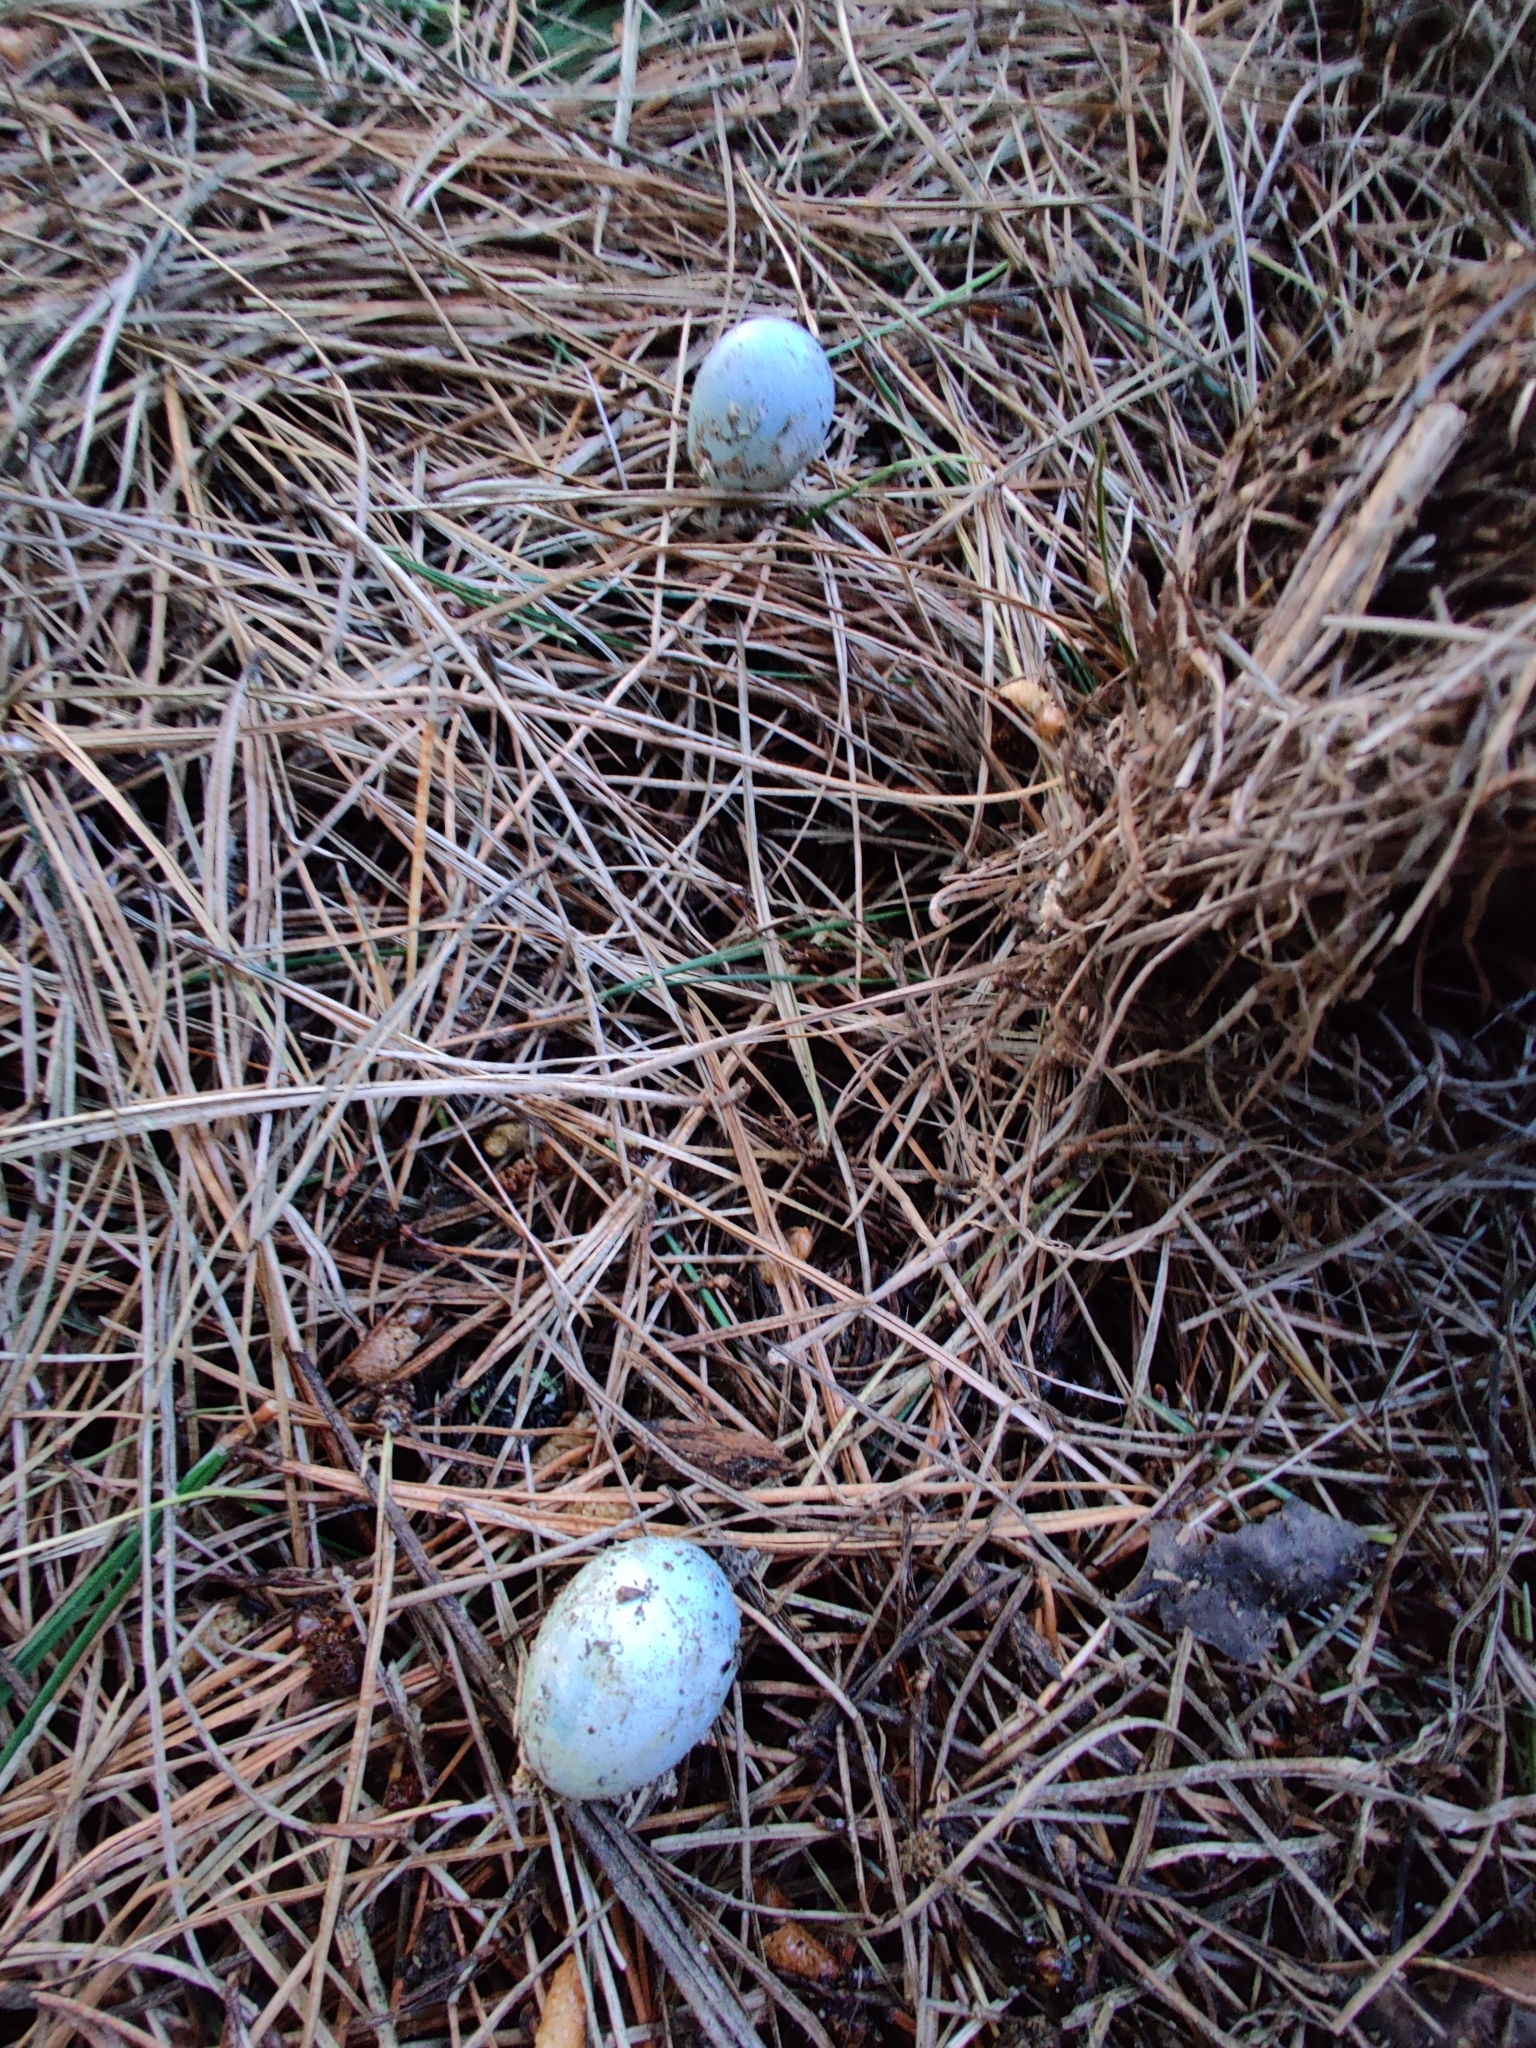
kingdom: Animalia
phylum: Chordata
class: Aves
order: Passeriformes
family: Turdidae
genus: Turdus
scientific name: Turdus philomelos
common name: Song thrush
